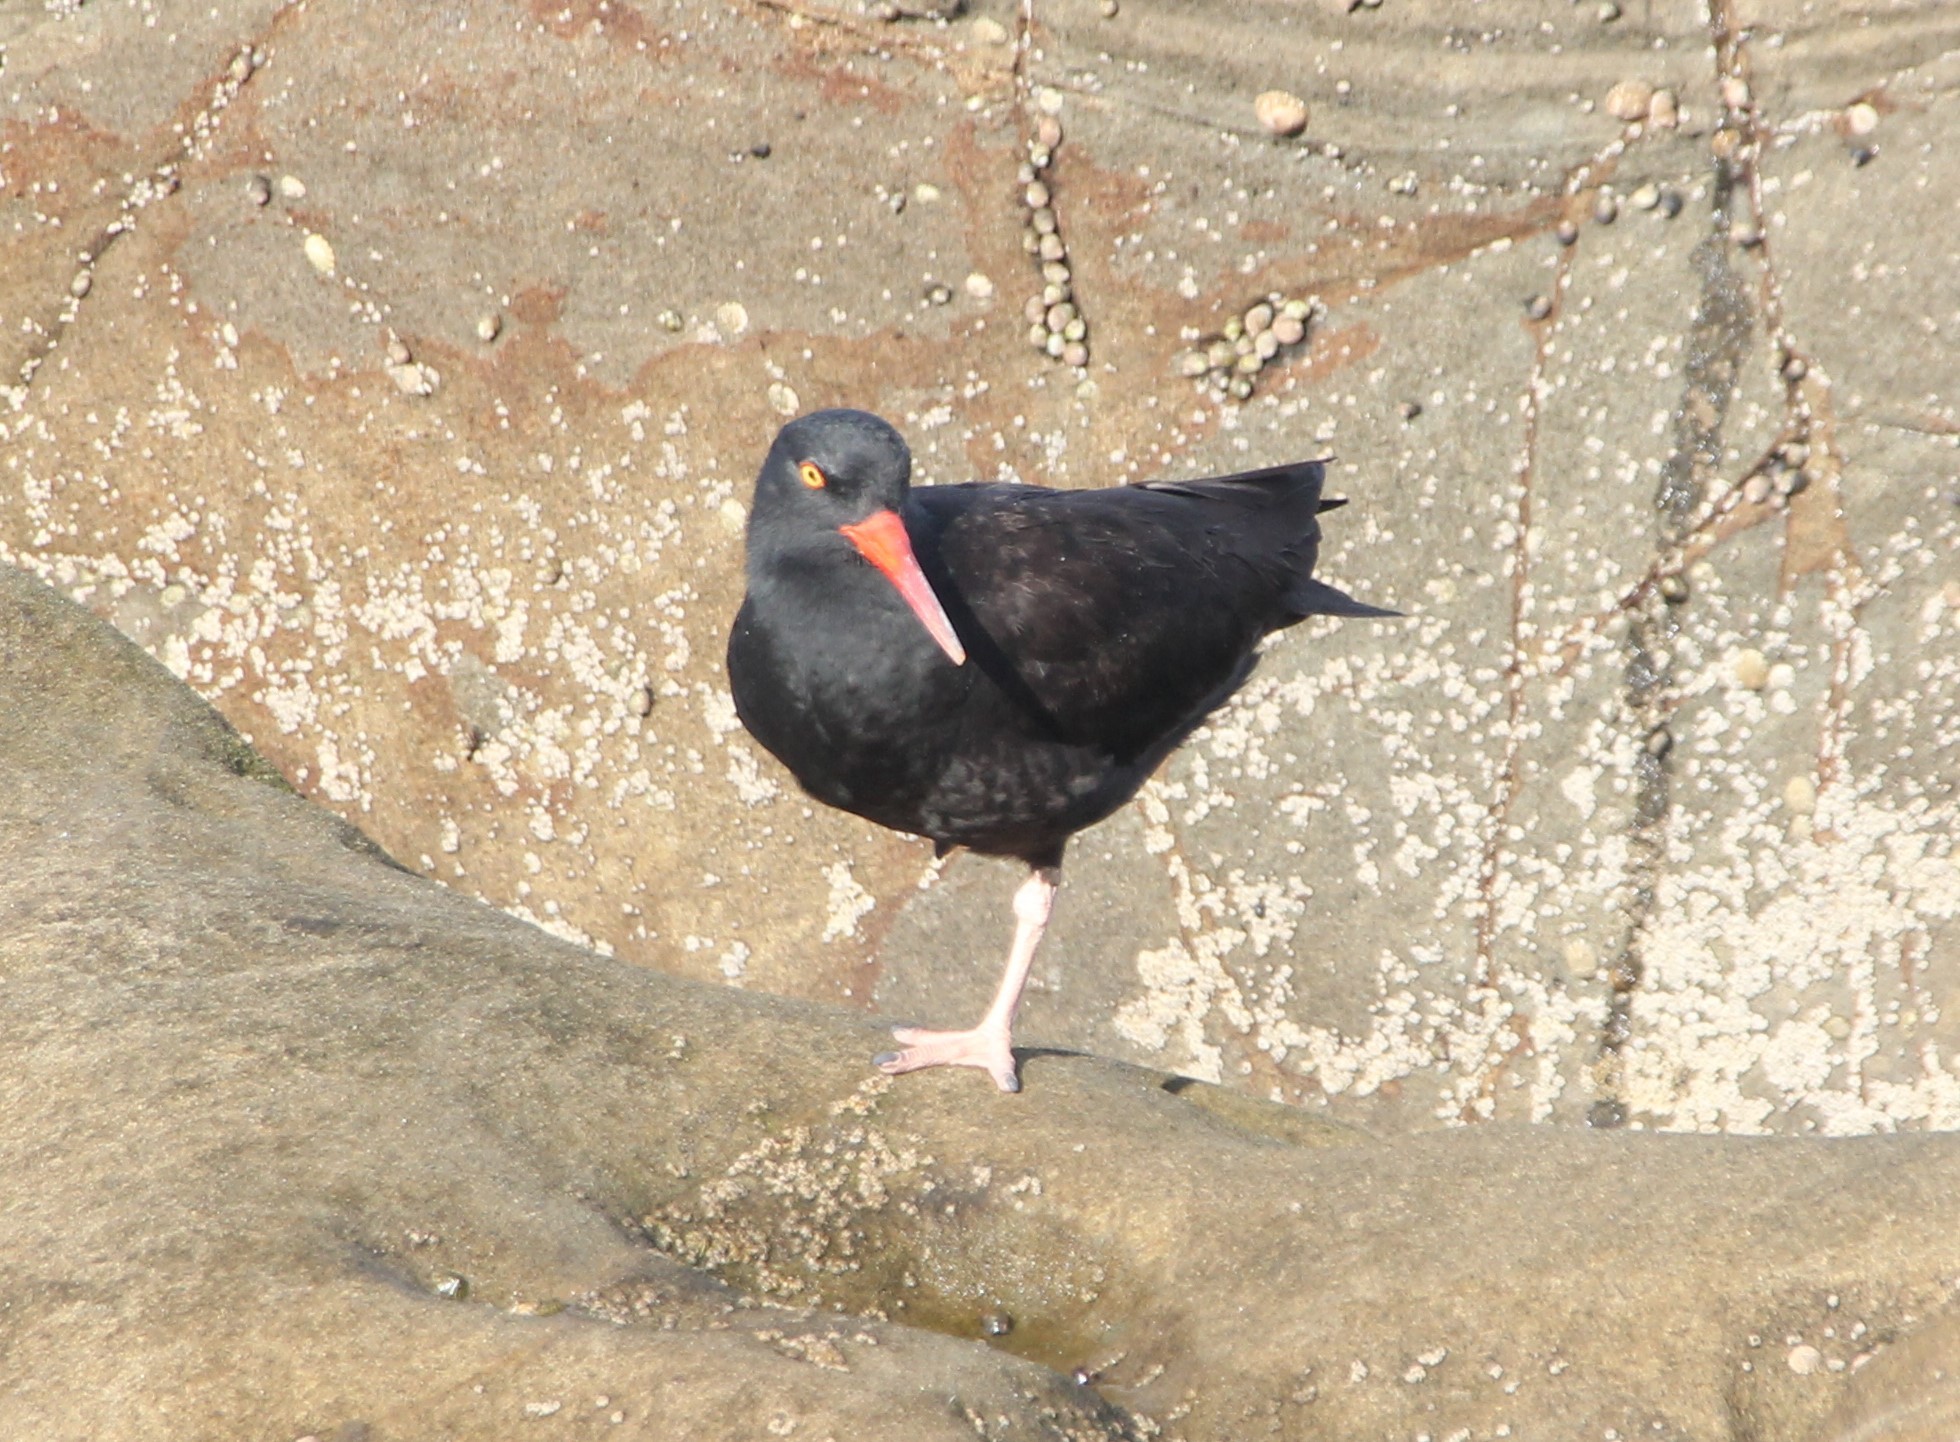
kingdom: Animalia
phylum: Chordata
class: Aves
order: Charadriiformes
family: Haematopodidae
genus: Haematopus
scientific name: Haematopus bachmani
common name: Black oystercatcher
